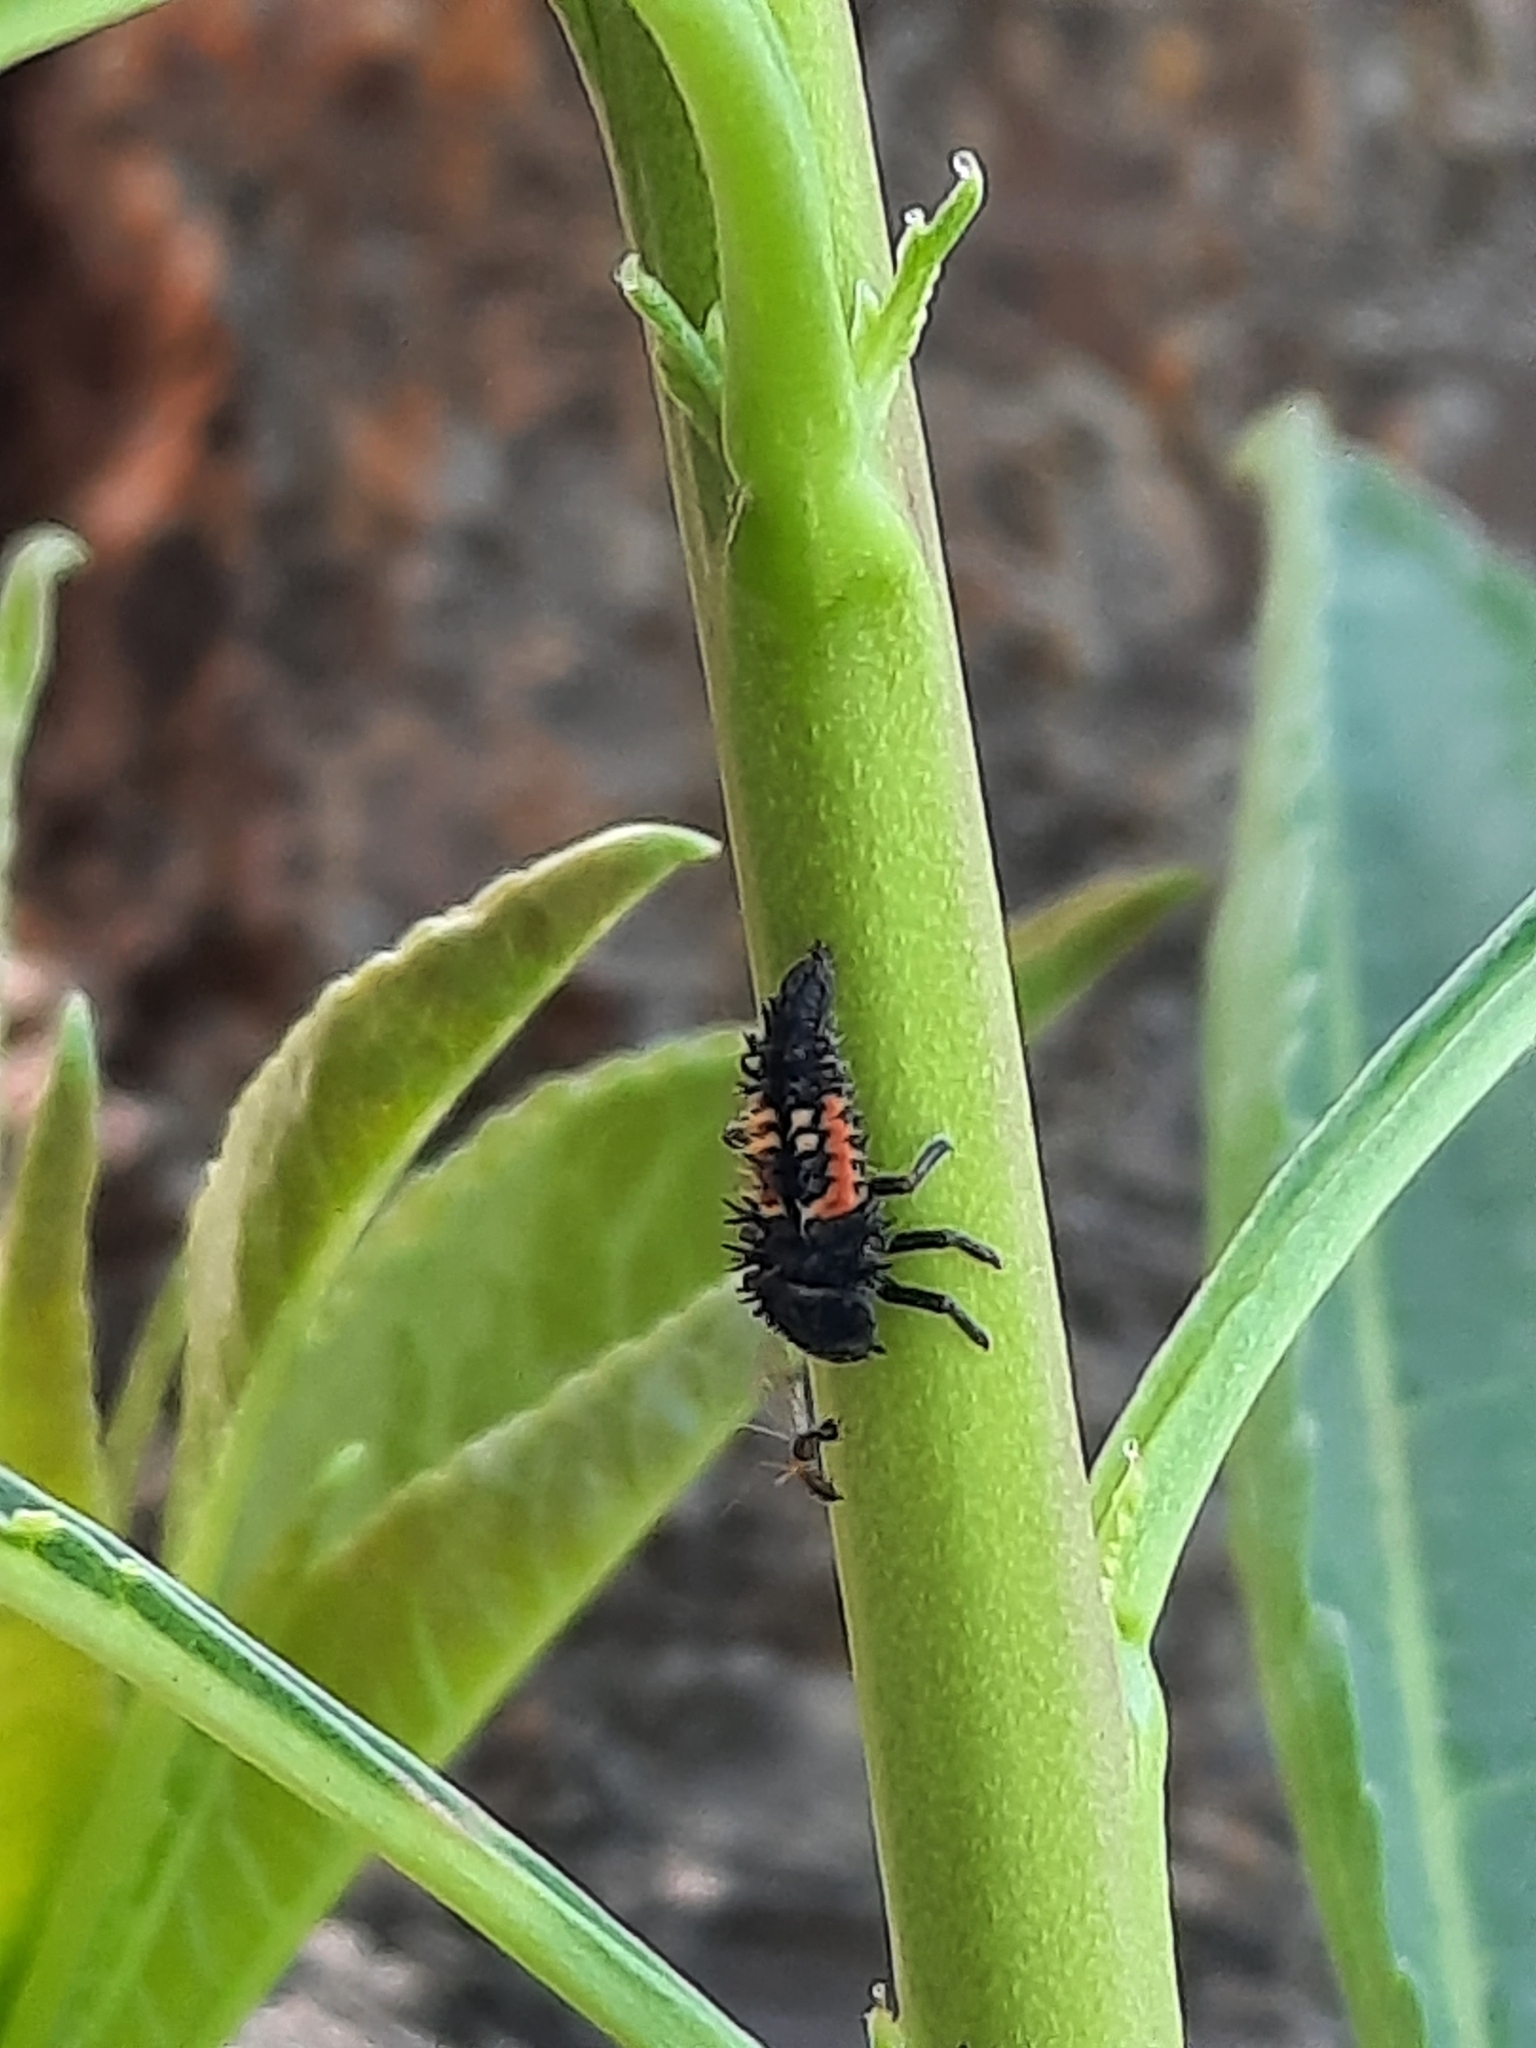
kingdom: Animalia
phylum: Arthropoda
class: Insecta
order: Coleoptera
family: Coccinellidae
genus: Harmonia
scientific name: Harmonia axyridis
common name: Harlequin ladybird
